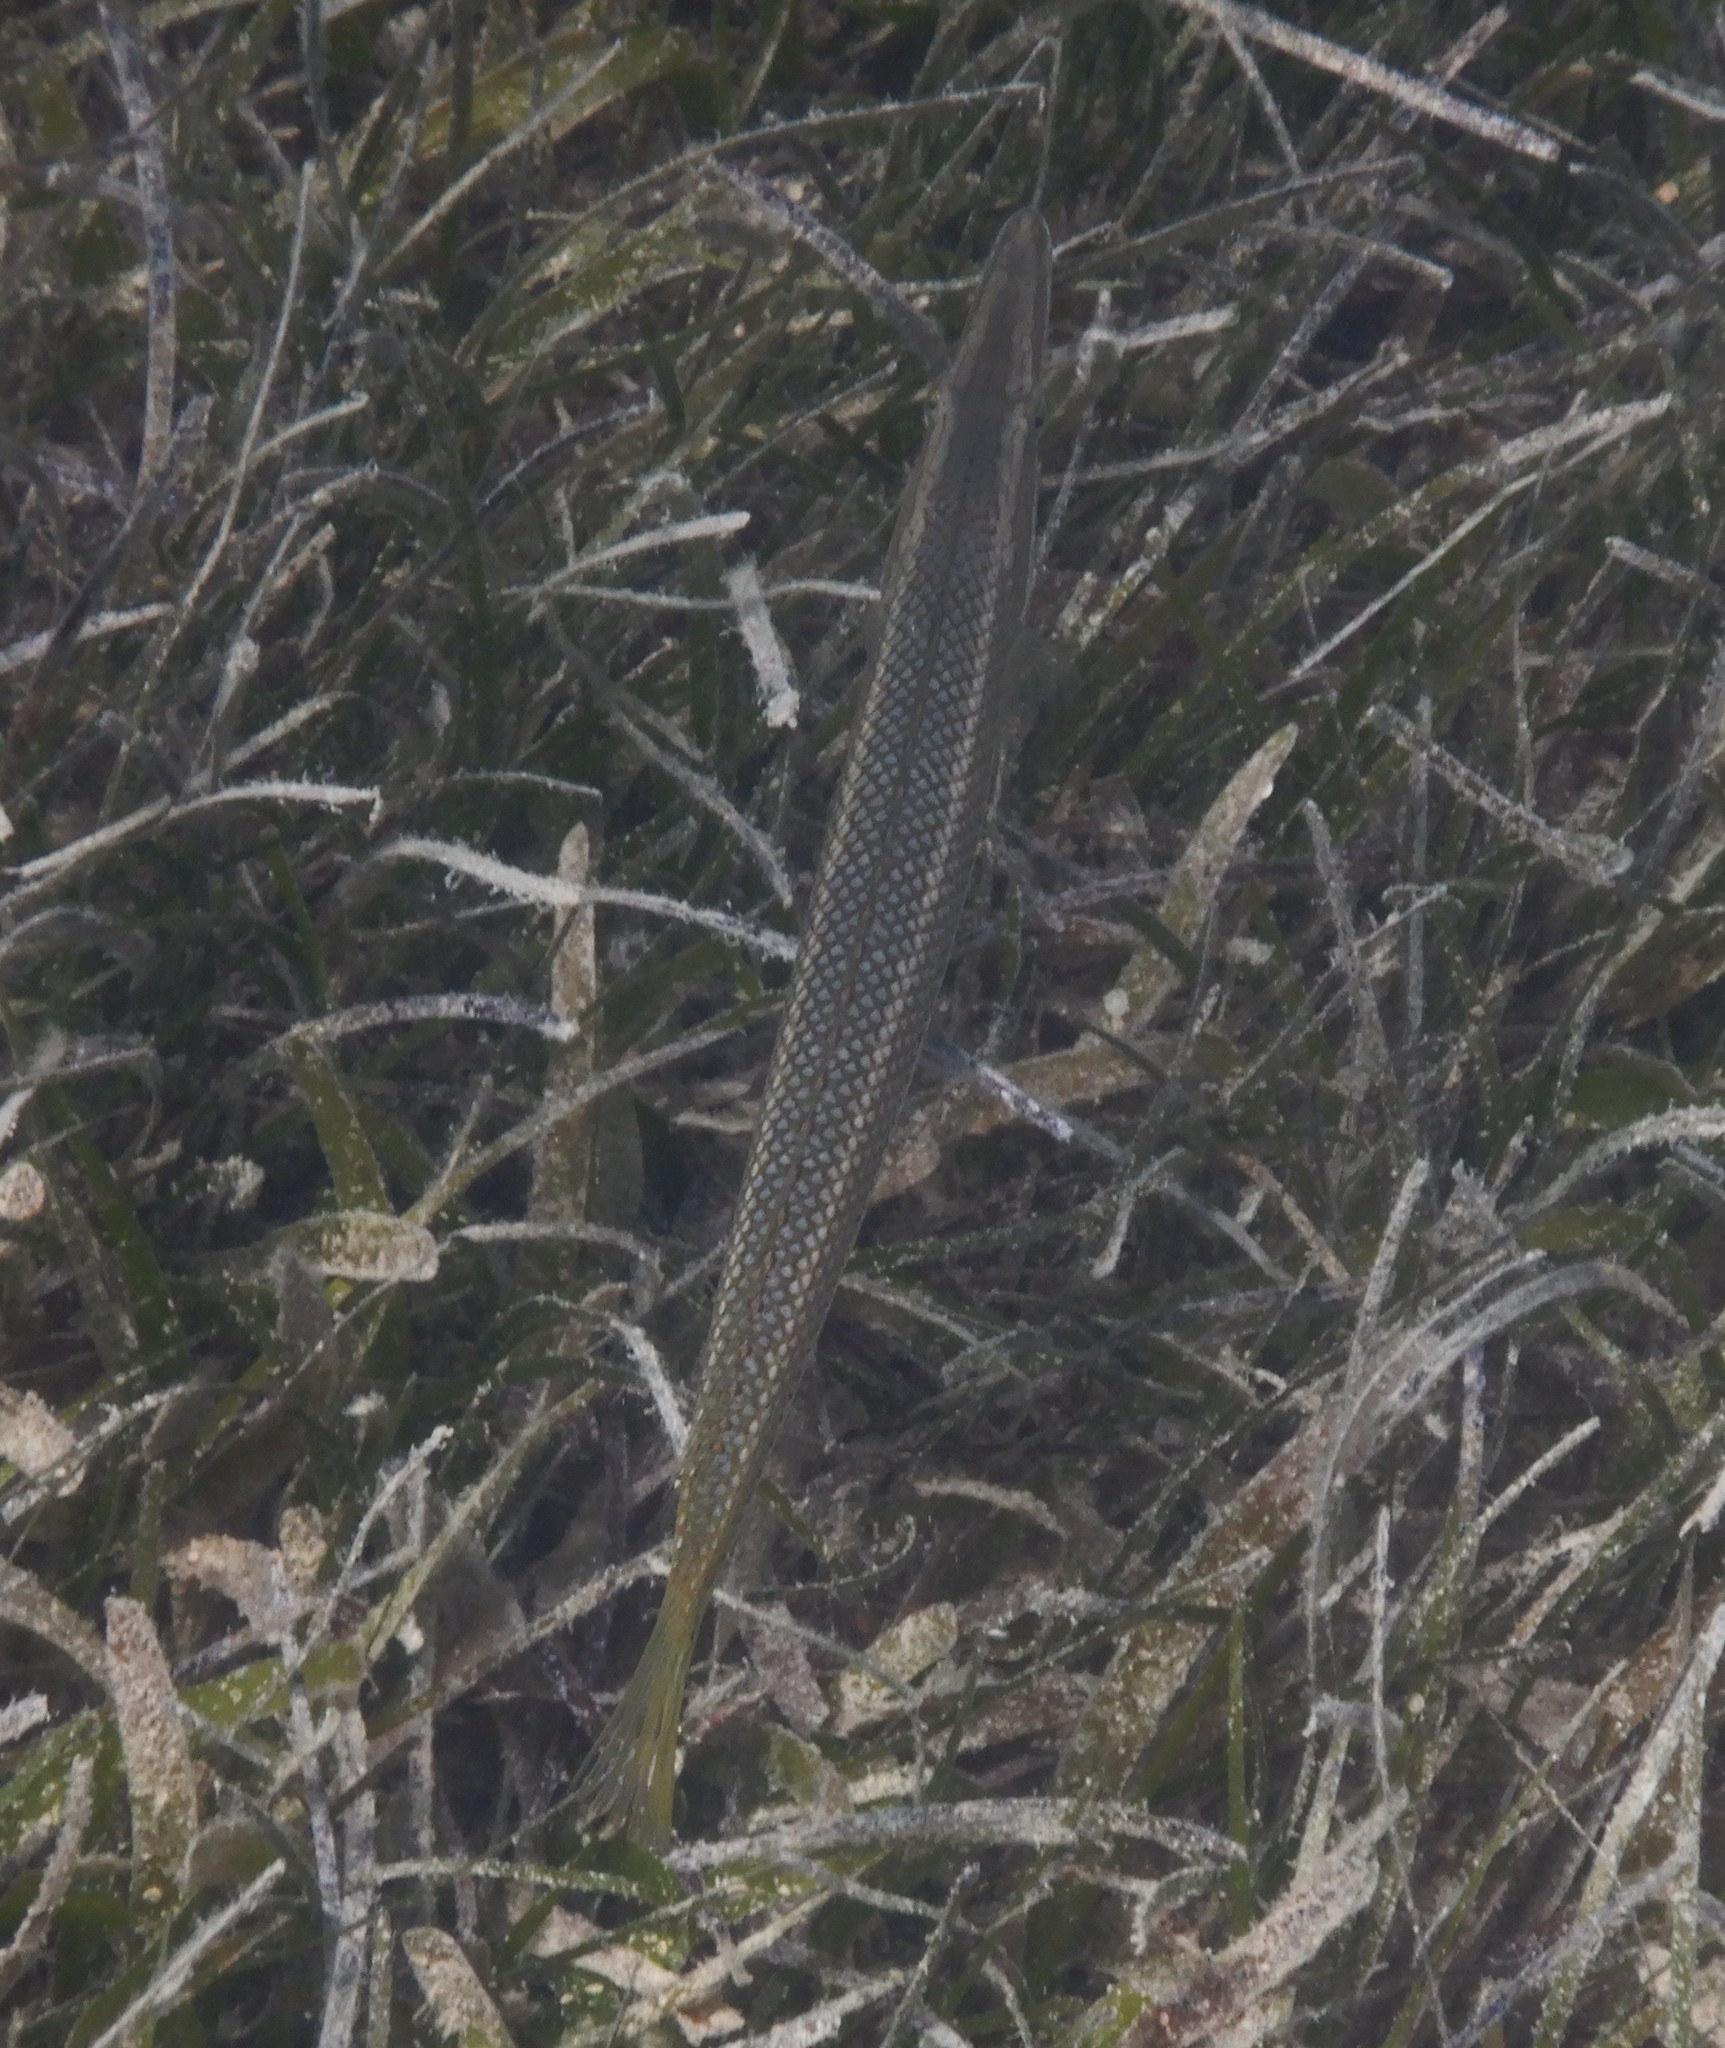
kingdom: Animalia
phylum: Chordata
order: Perciformes
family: Labridae
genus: Cheilio
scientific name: Cheilio inermis
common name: Cigar wrasse
